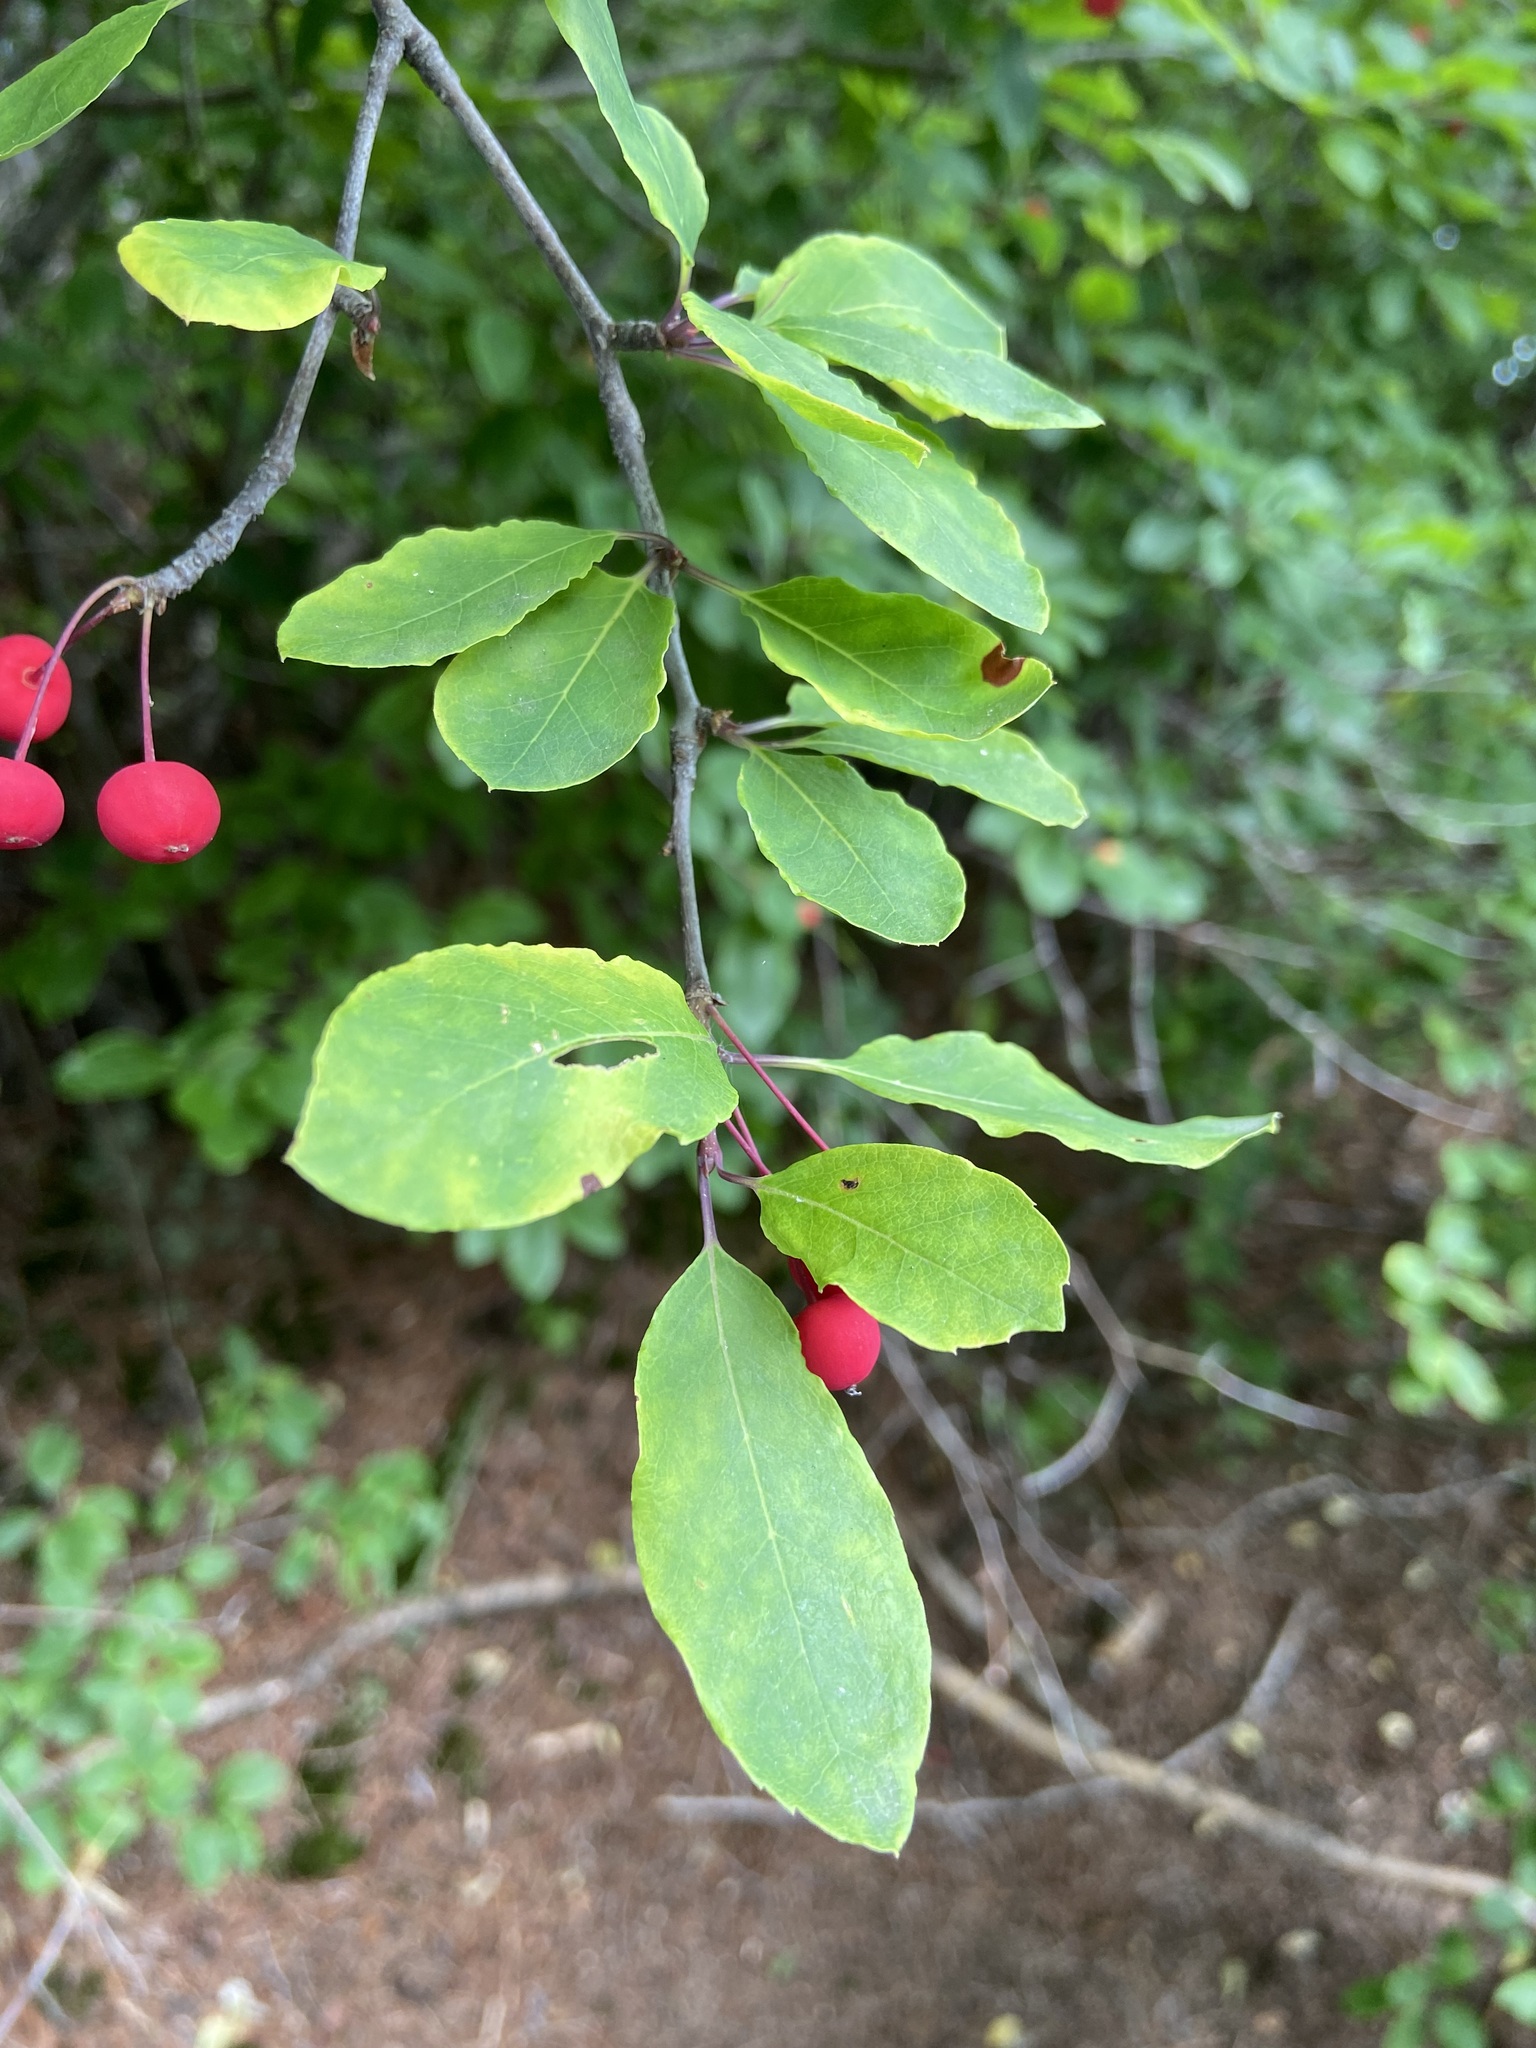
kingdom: Plantae
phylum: Tracheophyta
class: Magnoliopsida
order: Aquifoliales
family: Aquifoliaceae
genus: Ilex
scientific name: Ilex mucronata
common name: Catberry
